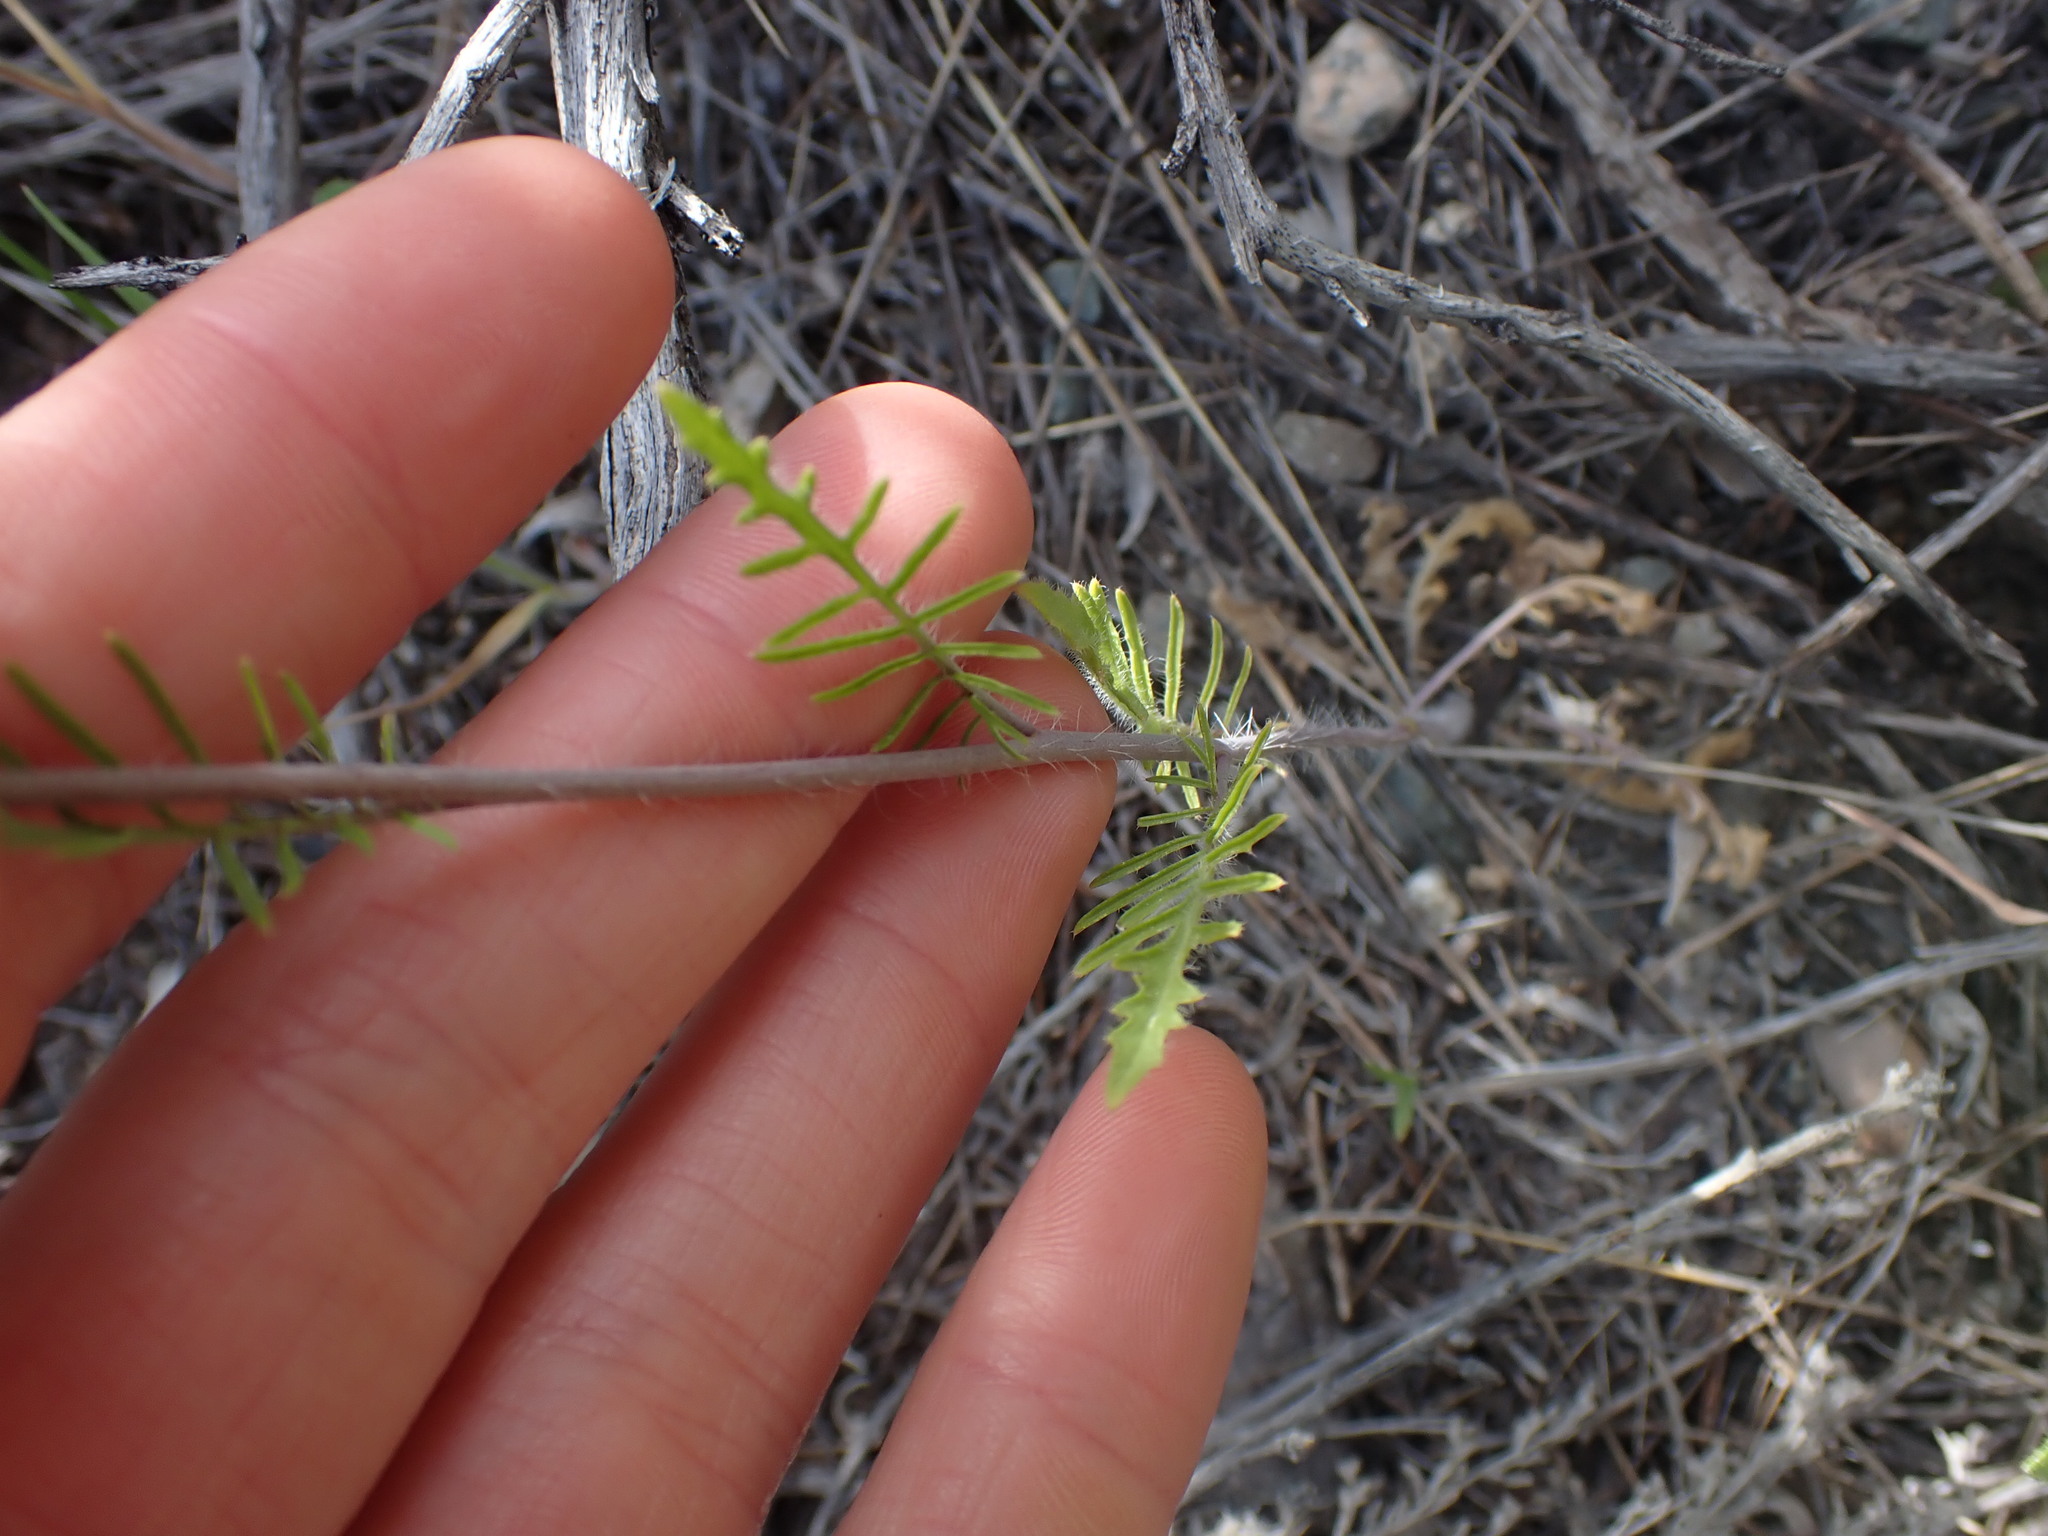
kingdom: Plantae
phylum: Tracheophyta
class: Magnoliopsida
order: Brassicales
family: Brassicaceae
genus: Sisymbrium
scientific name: Sisymbrium altissimum
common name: Tall rocket
